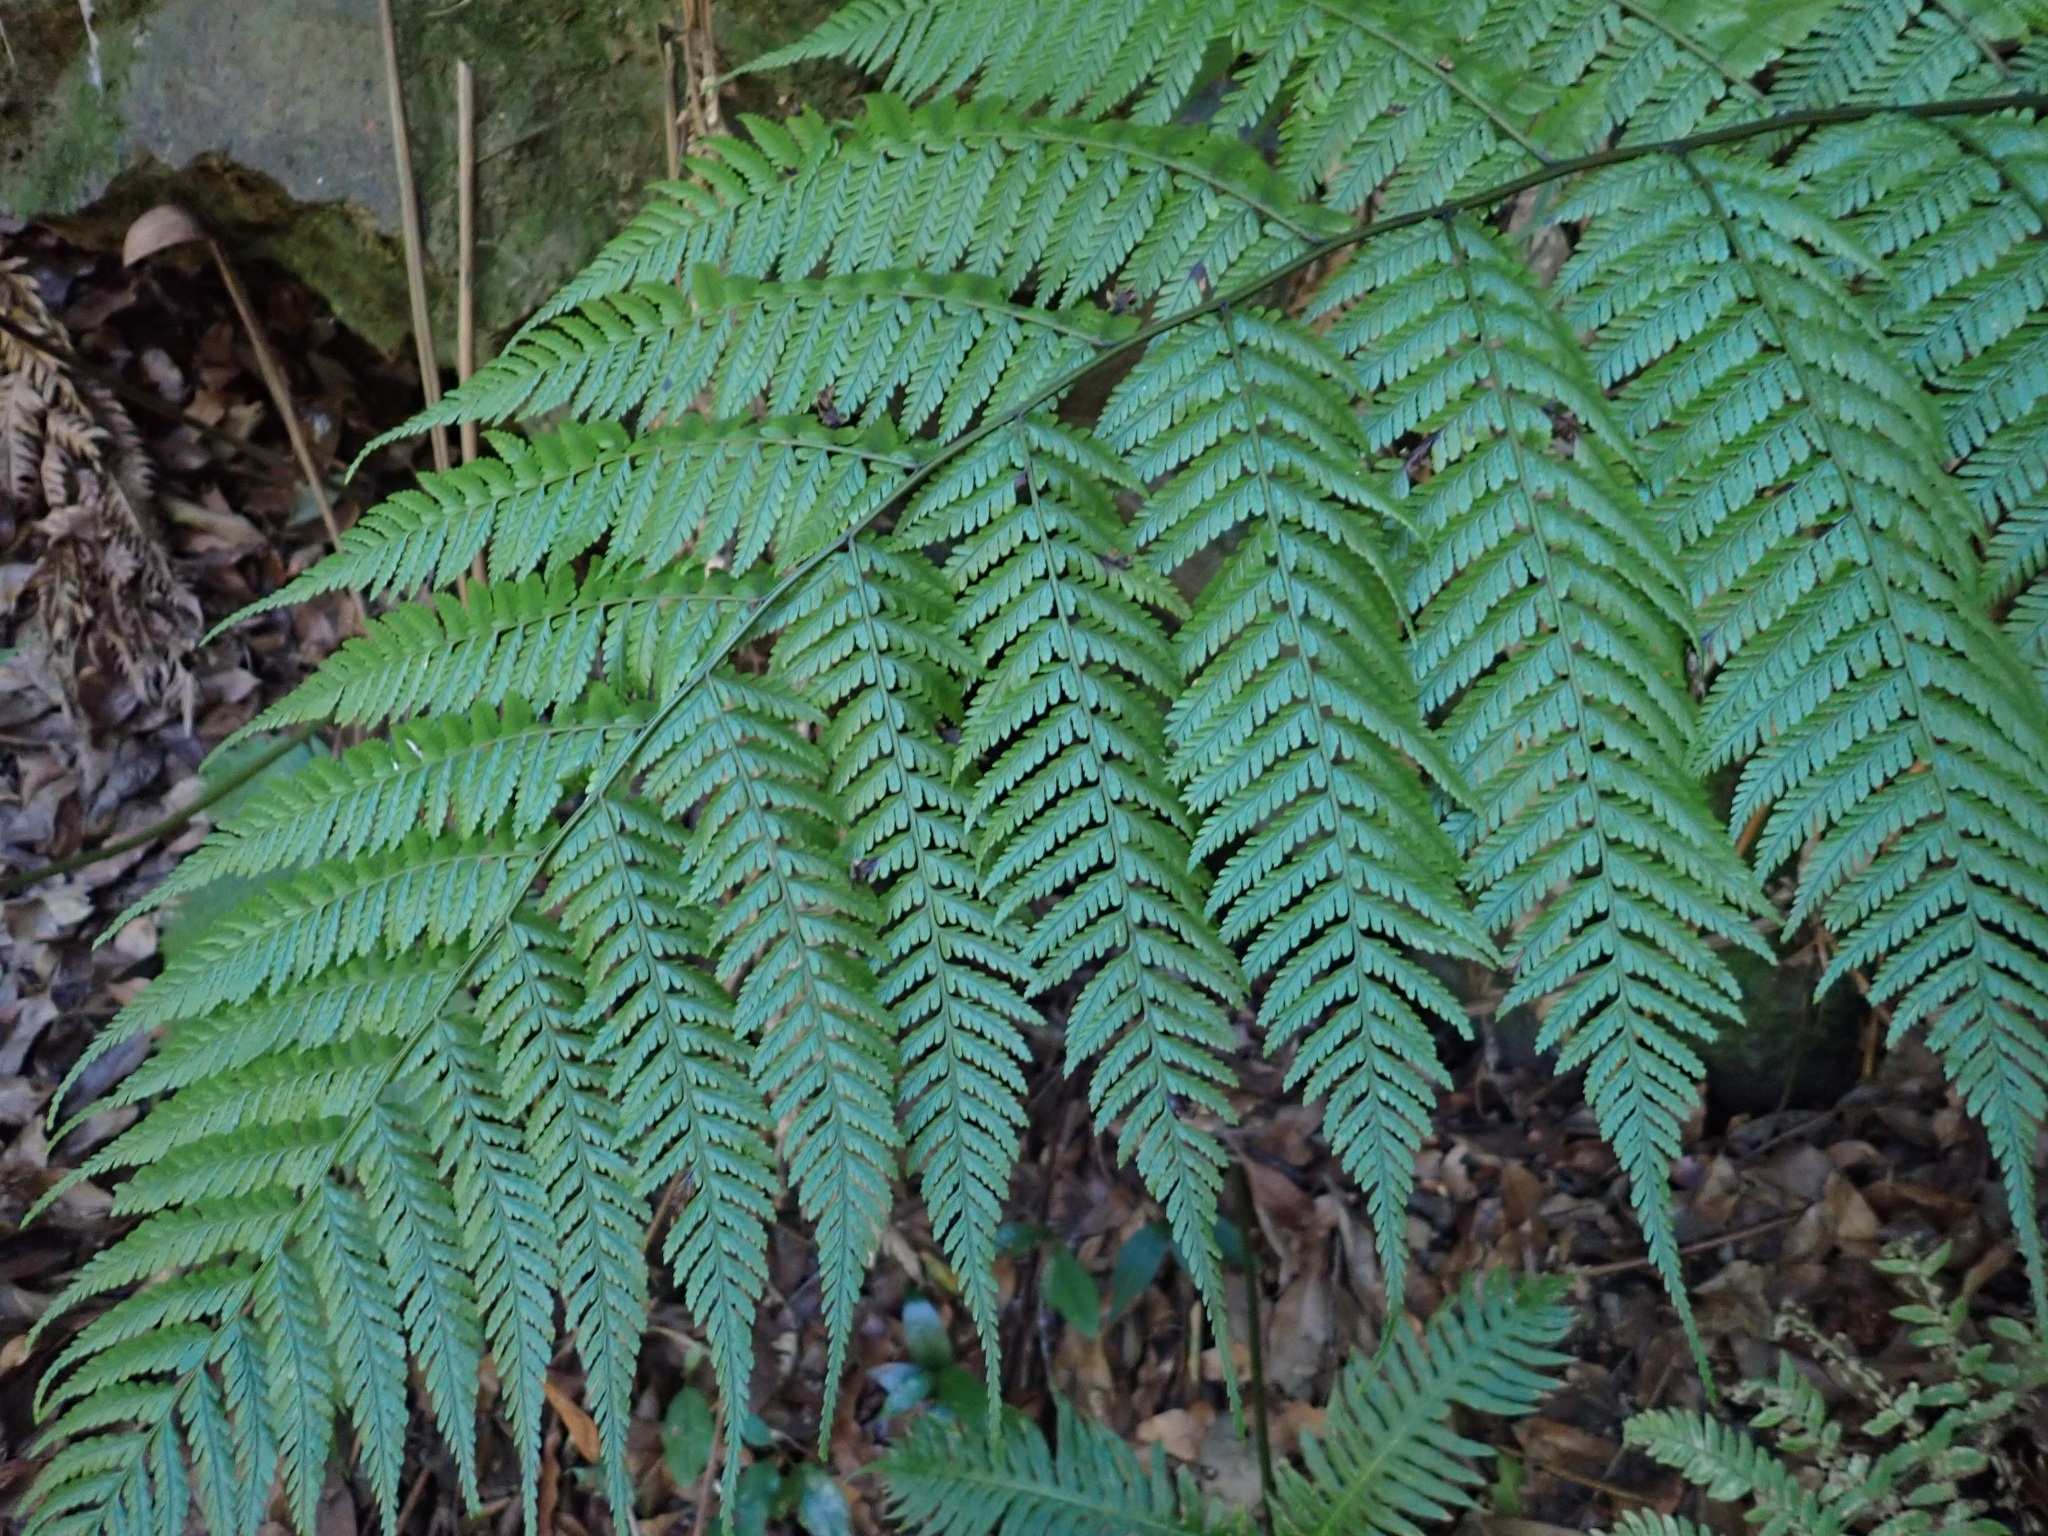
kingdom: Plantae
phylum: Tracheophyta
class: Polypodiopsida
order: Polypodiales
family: Athyriaceae
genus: Diplazium
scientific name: Diplazium caudatum
